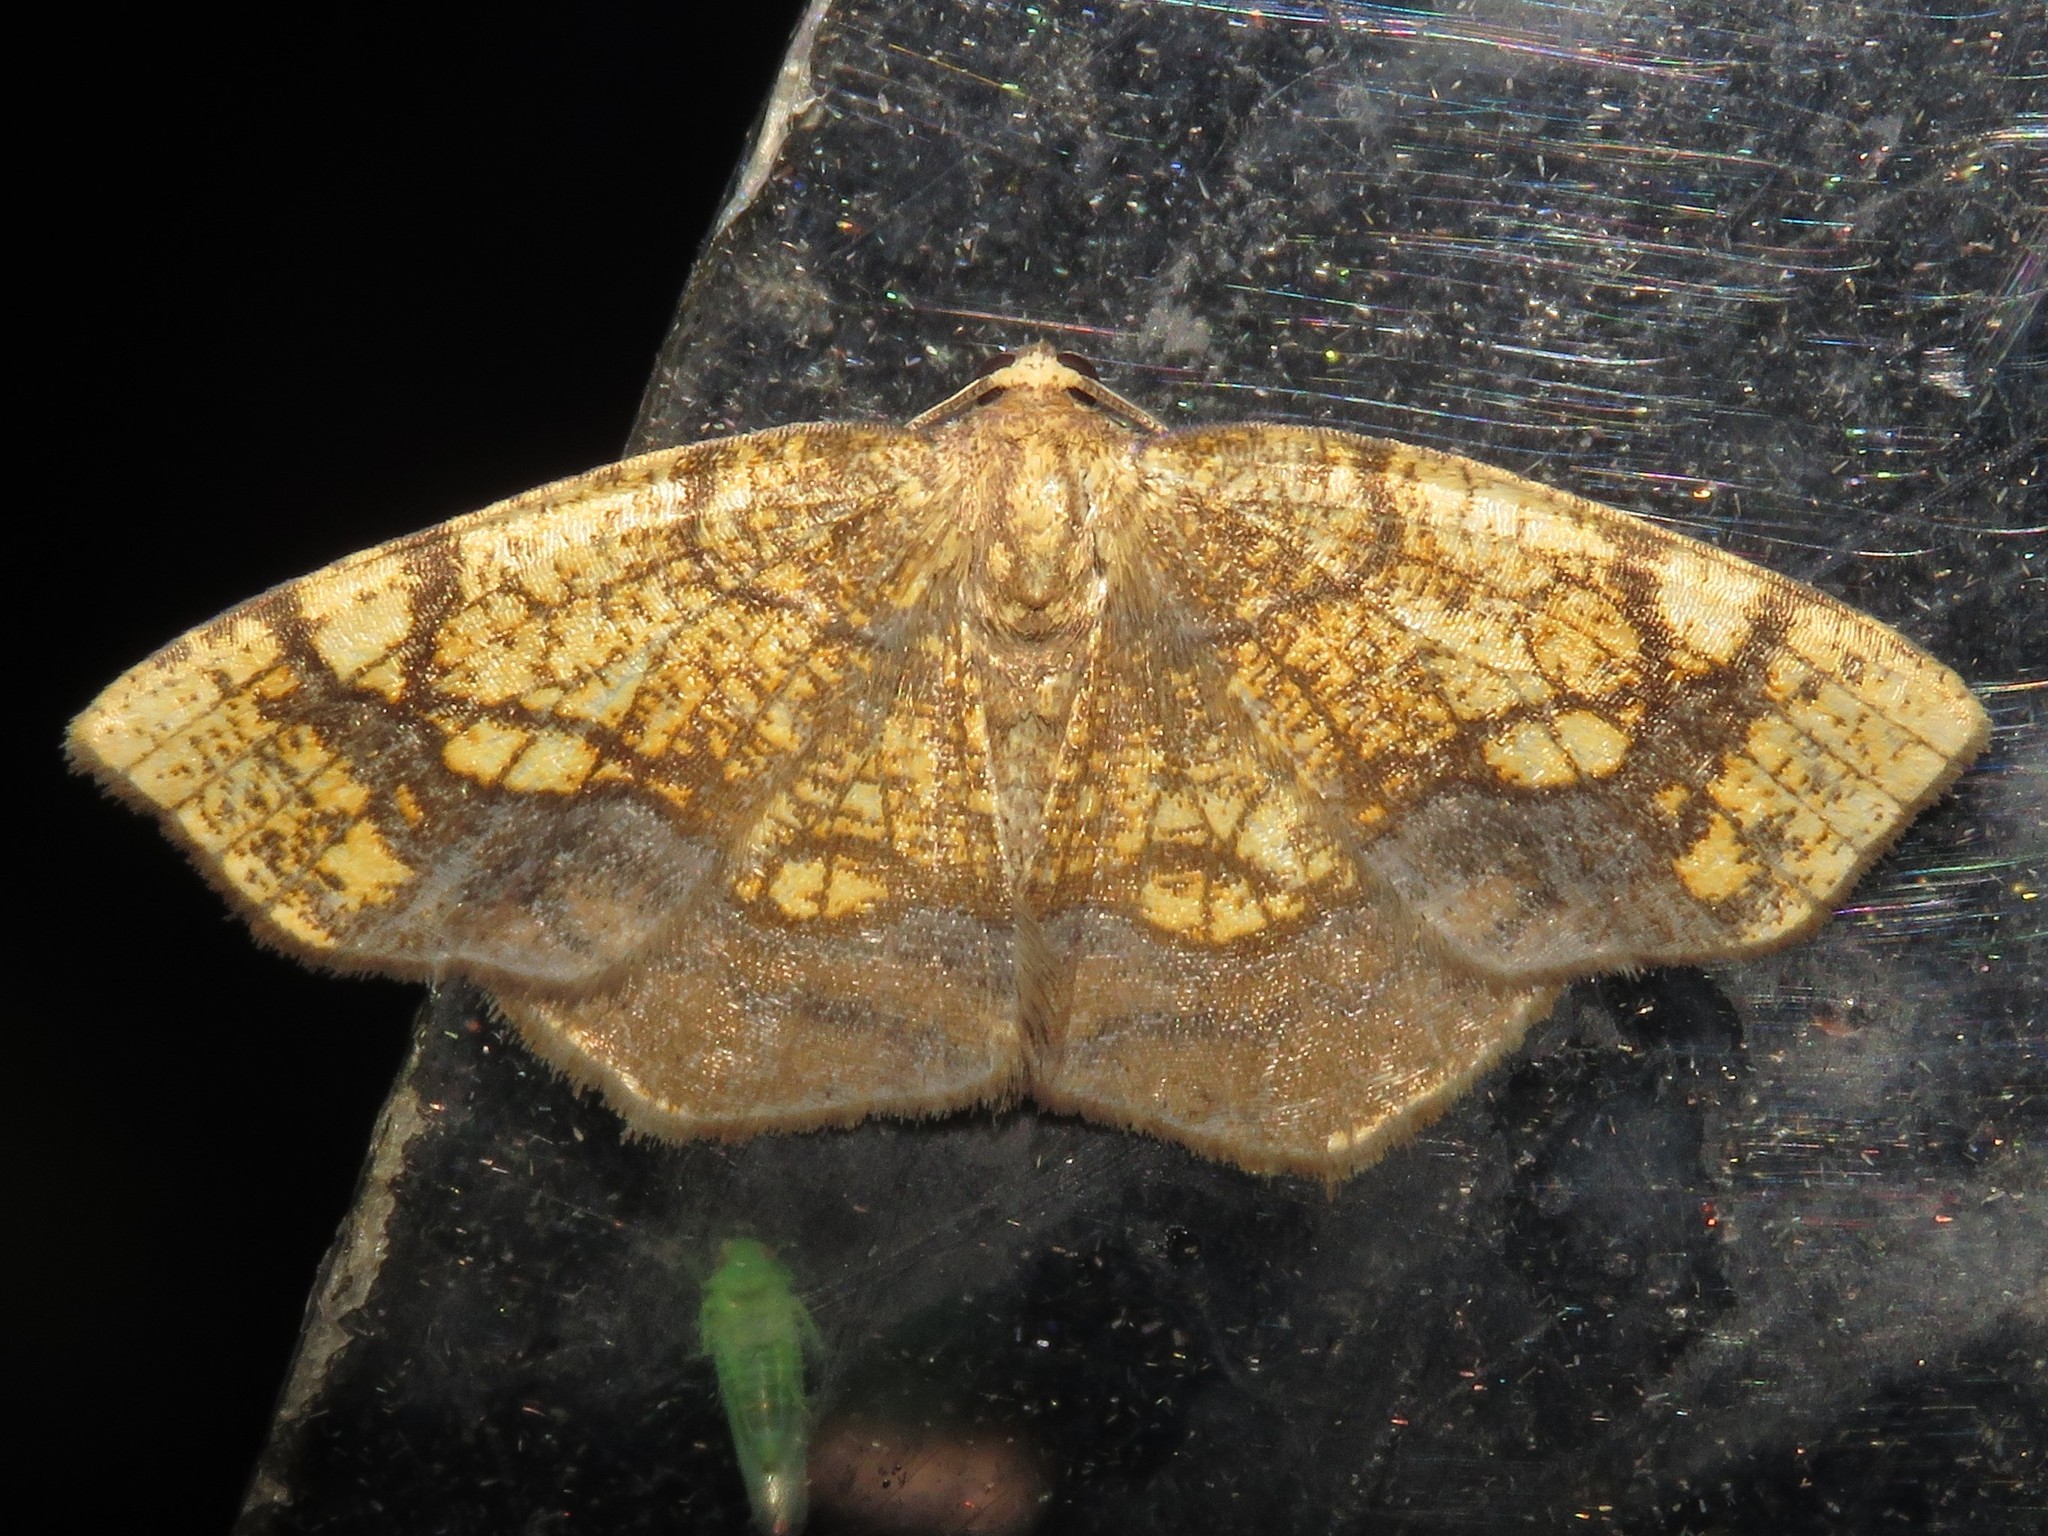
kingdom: Animalia
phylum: Arthropoda
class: Insecta
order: Lepidoptera
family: Geometridae
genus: Nematocampa
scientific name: Nematocampa resistaria
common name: Horned spanworm moth
